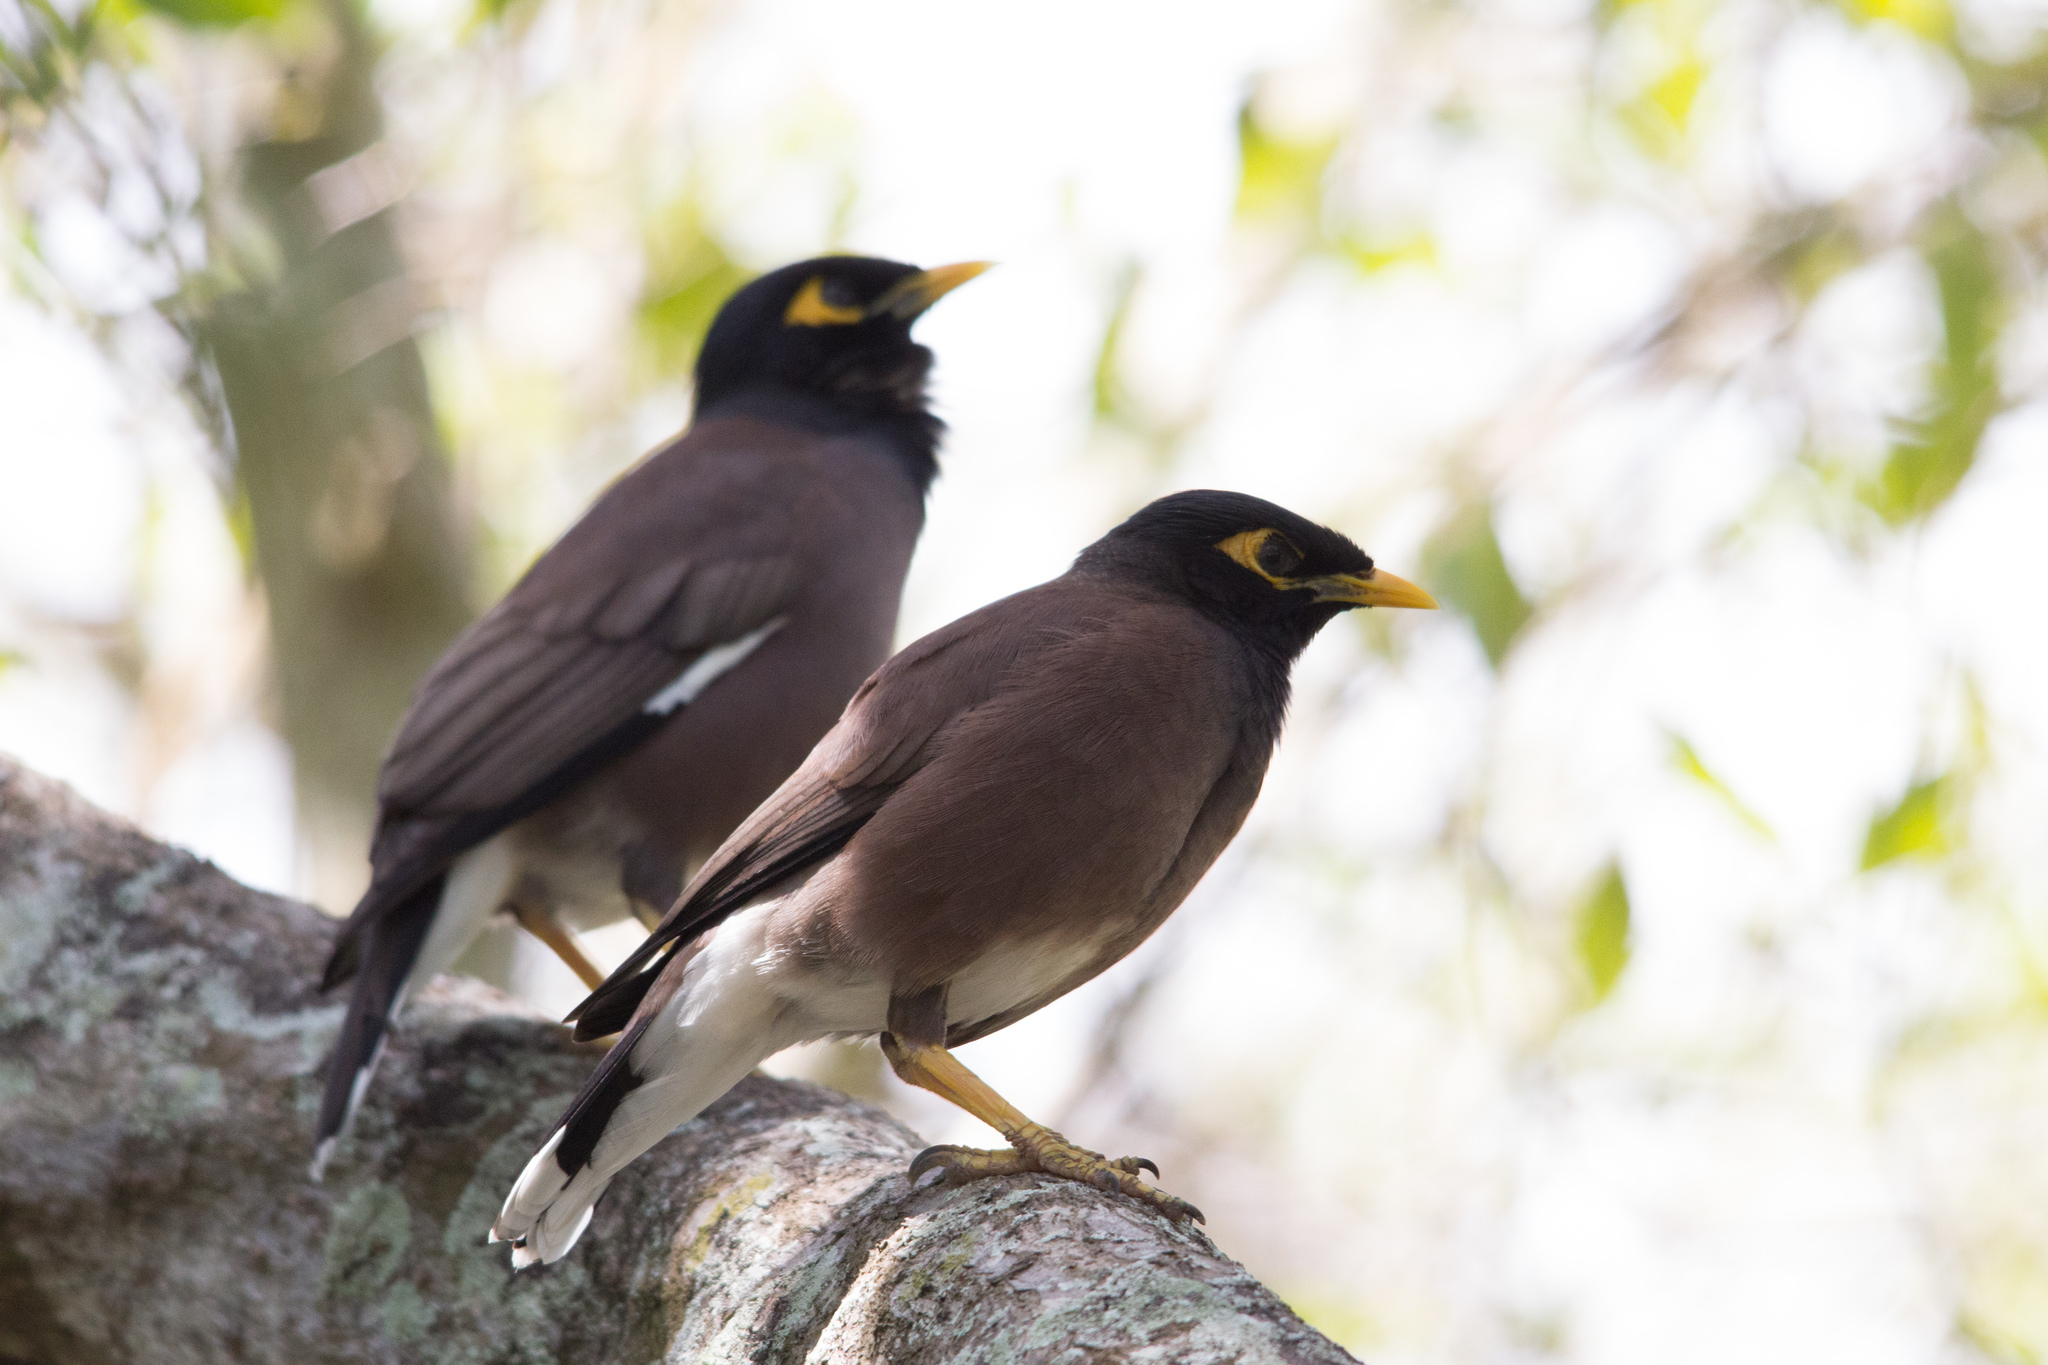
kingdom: Animalia
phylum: Chordata
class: Aves
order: Passeriformes
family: Sturnidae
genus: Acridotheres
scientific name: Acridotheres tristis
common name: Common myna
